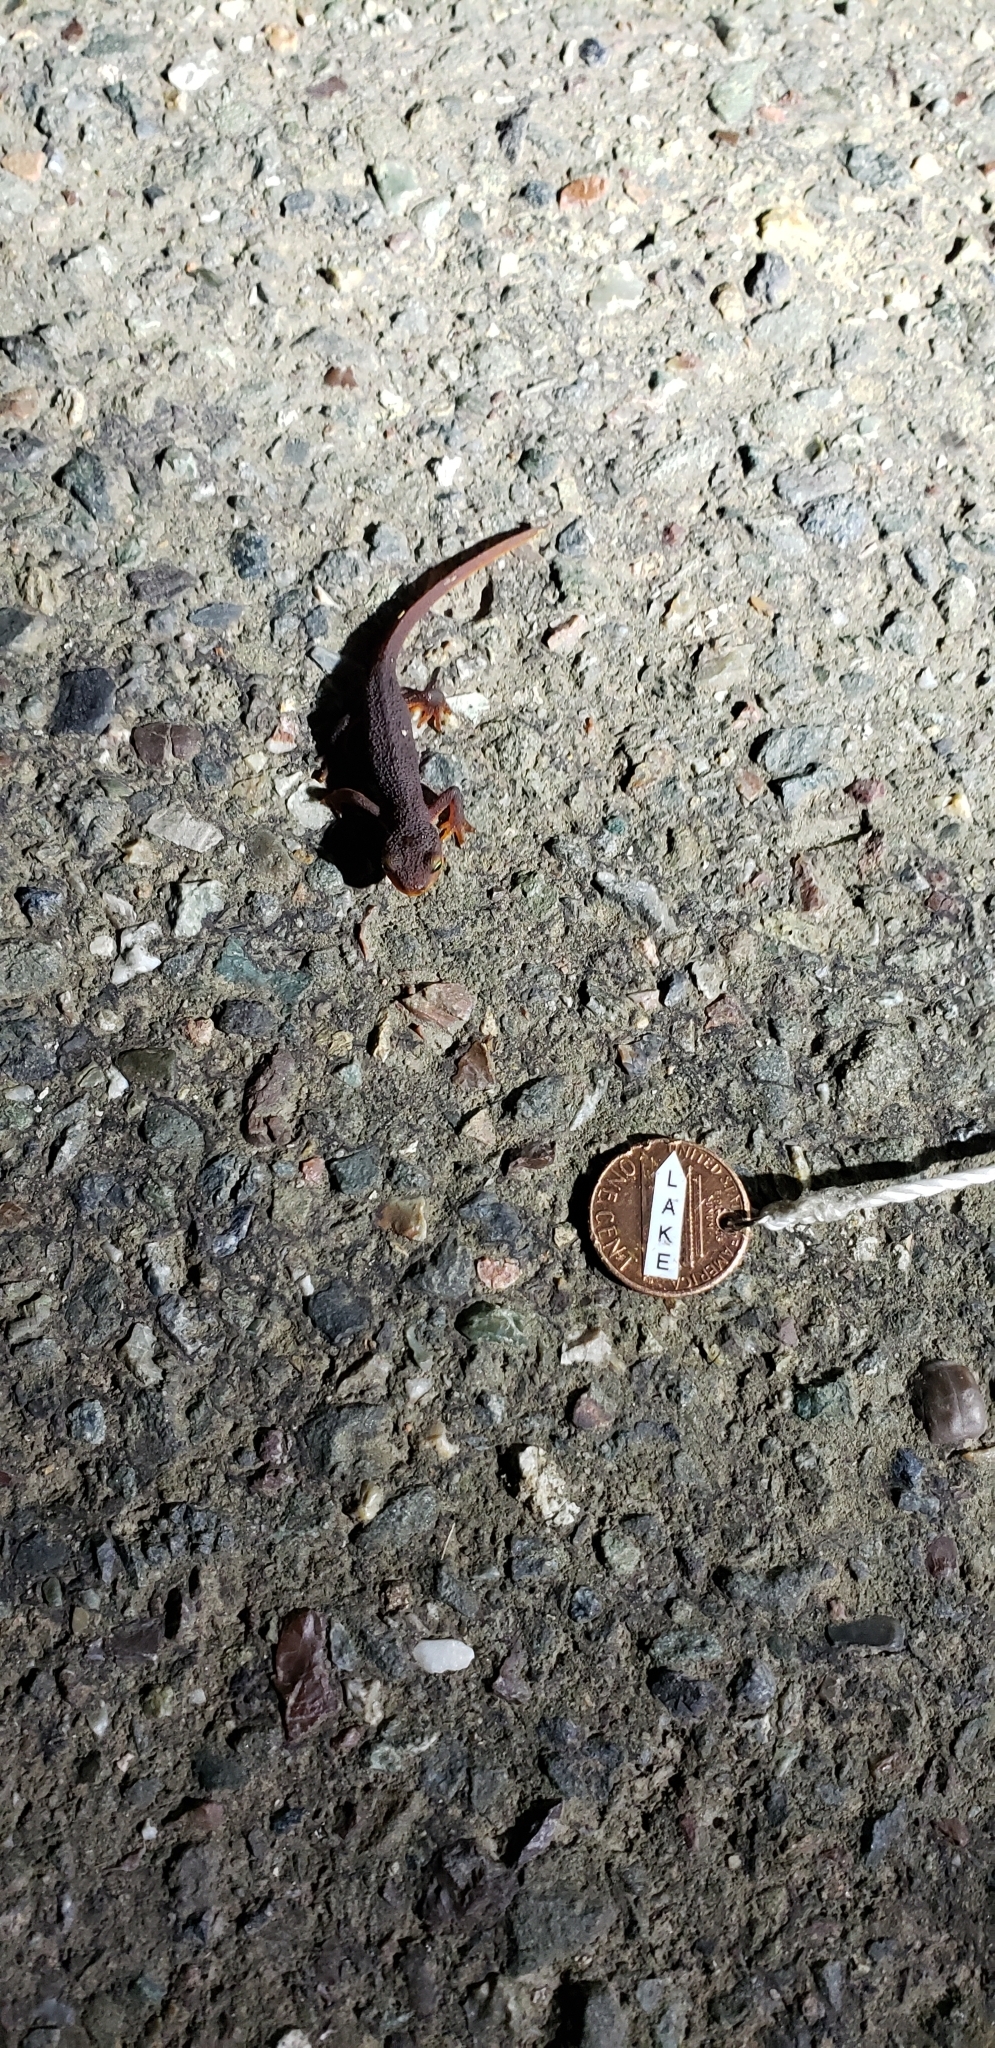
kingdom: Animalia
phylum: Chordata
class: Amphibia
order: Caudata
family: Salamandridae
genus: Taricha
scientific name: Taricha torosa
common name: California newt
